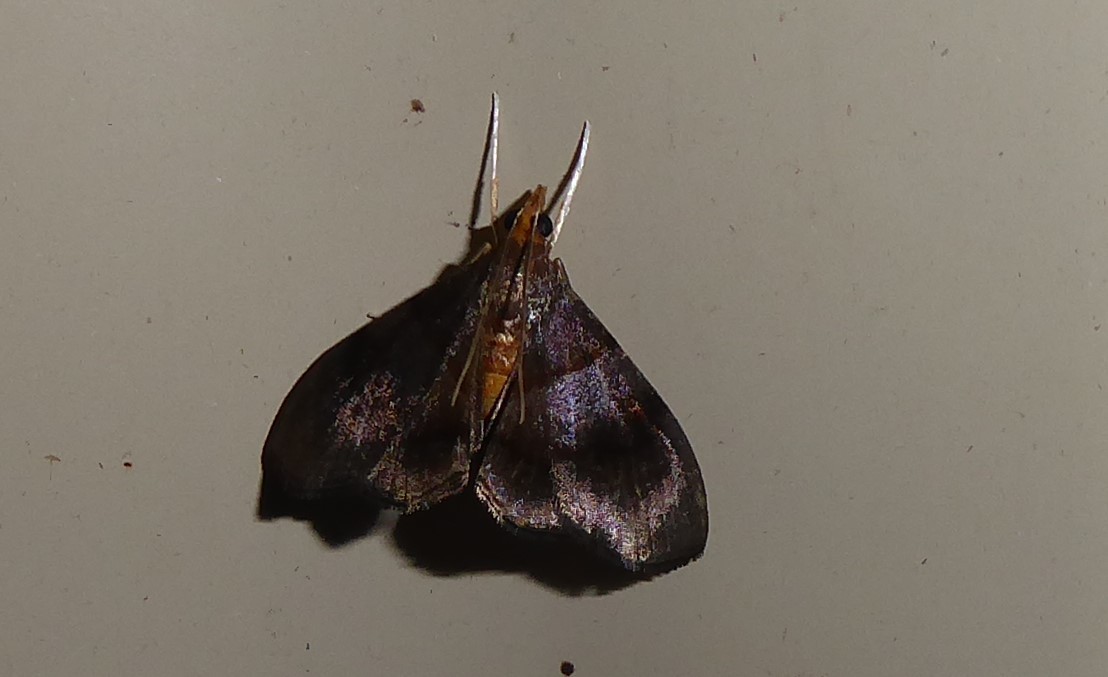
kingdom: Animalia
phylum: Arthropoda
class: Insecta
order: Lepidoptera
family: Crambidae
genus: Hemiscopis
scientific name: Hemiscopis violacea
